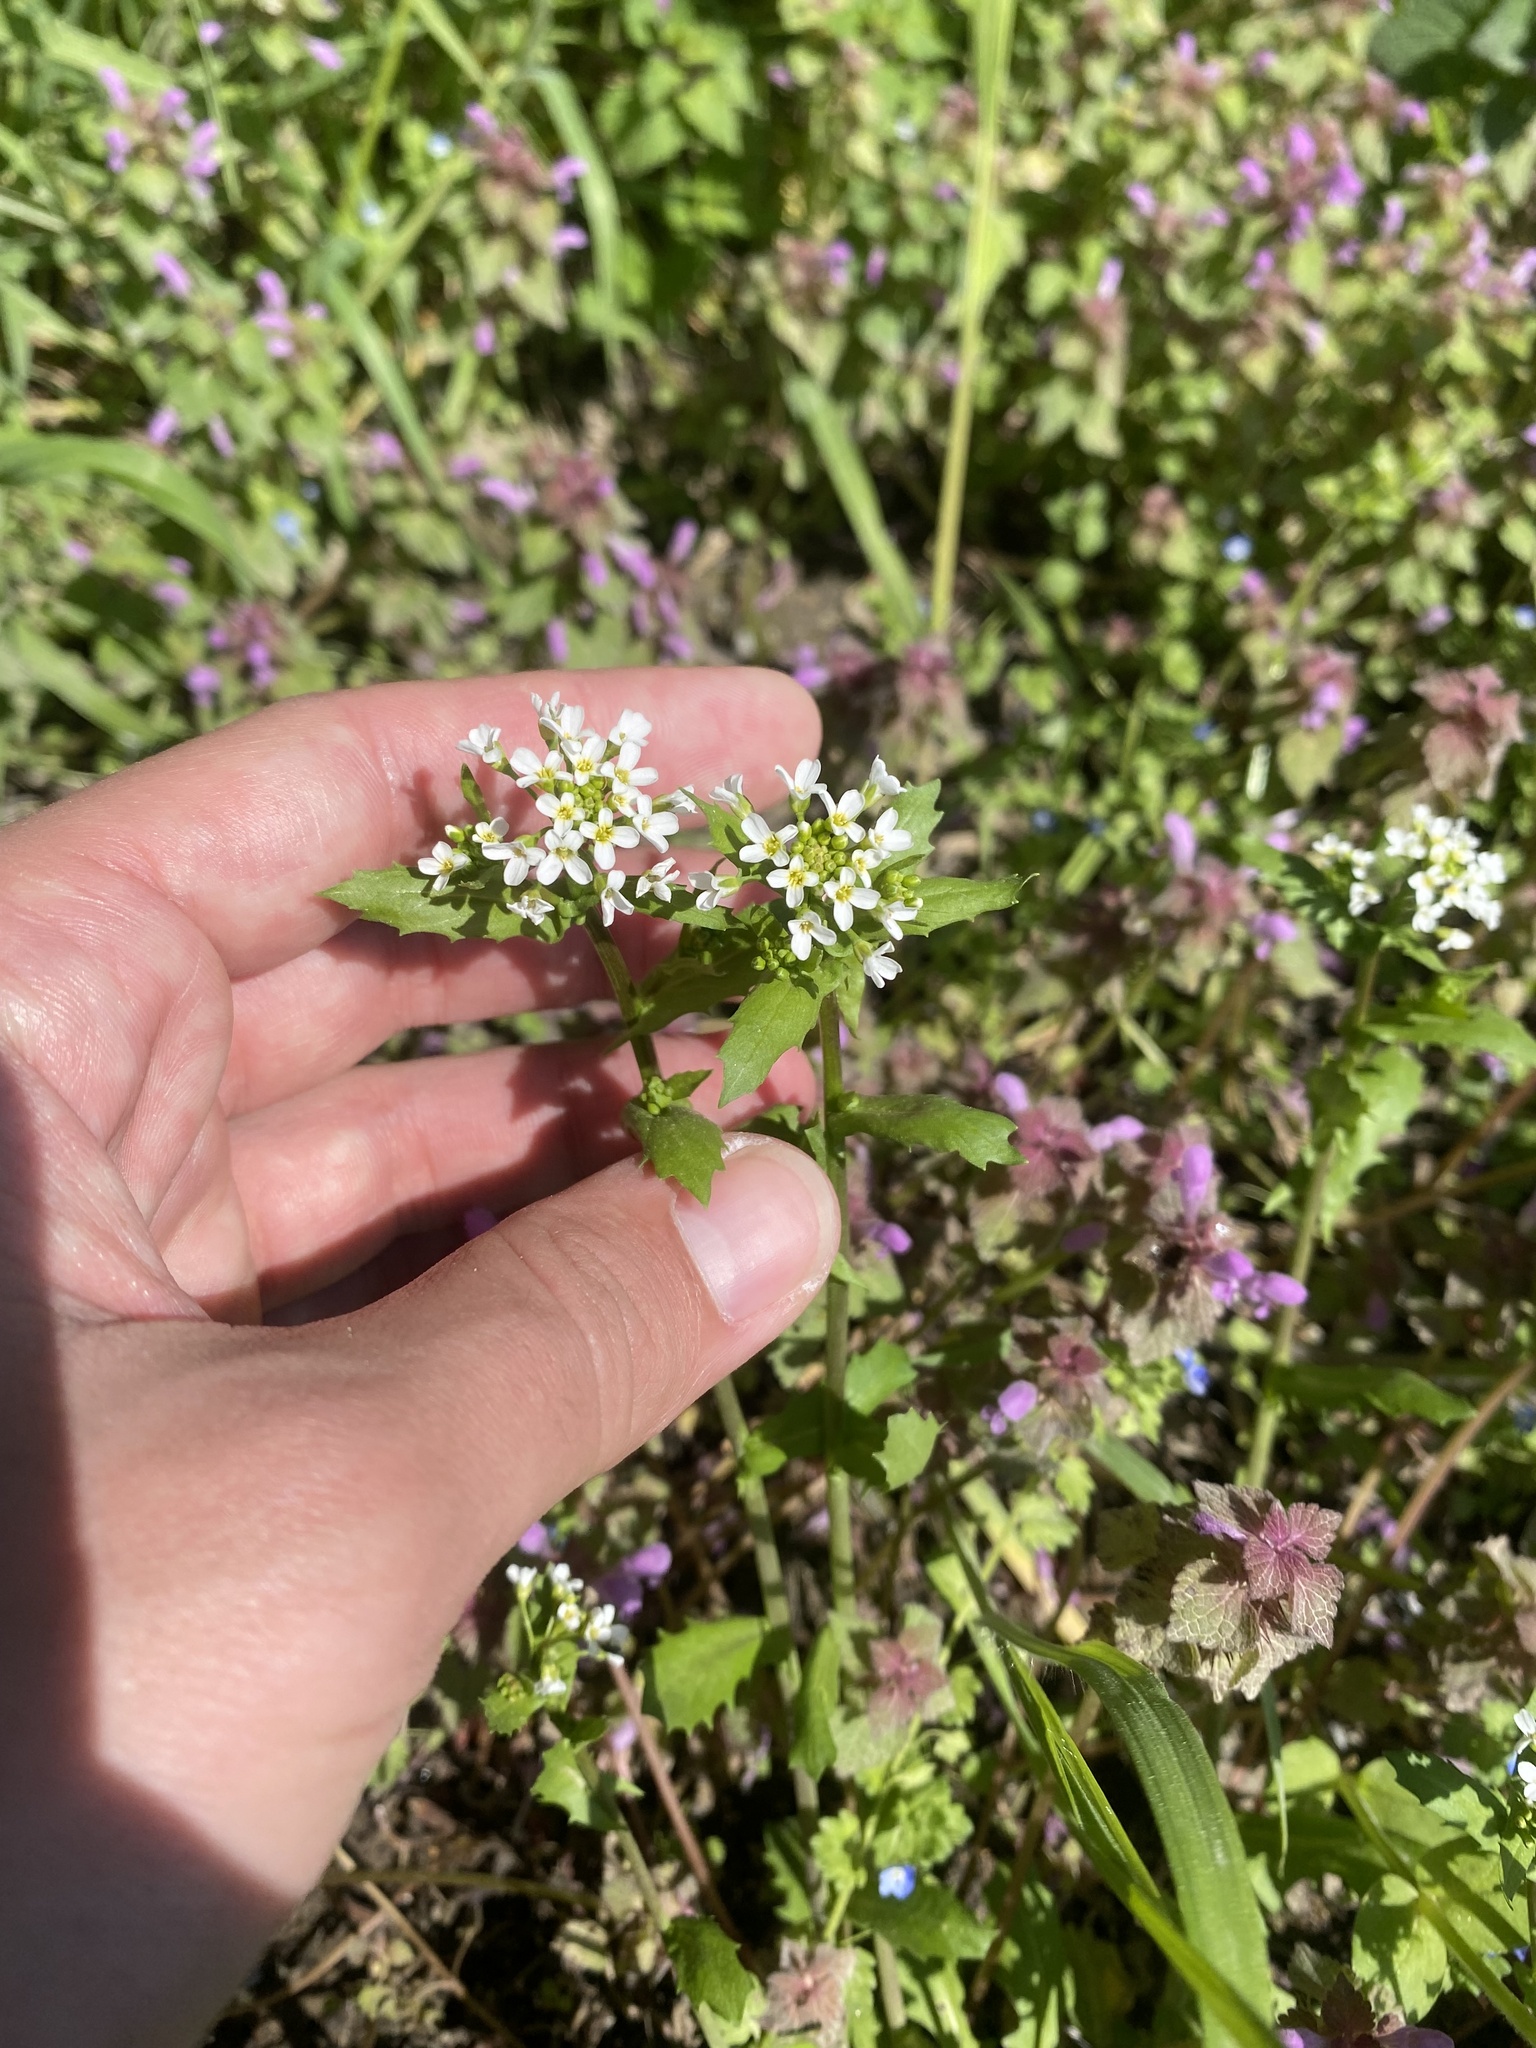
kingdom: Plantae
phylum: Tracheophyta
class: Magnoliopsida
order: Brassicales
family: Brassicaceae
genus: Calepina
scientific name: Calepina irregularis
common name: White ballmustard
